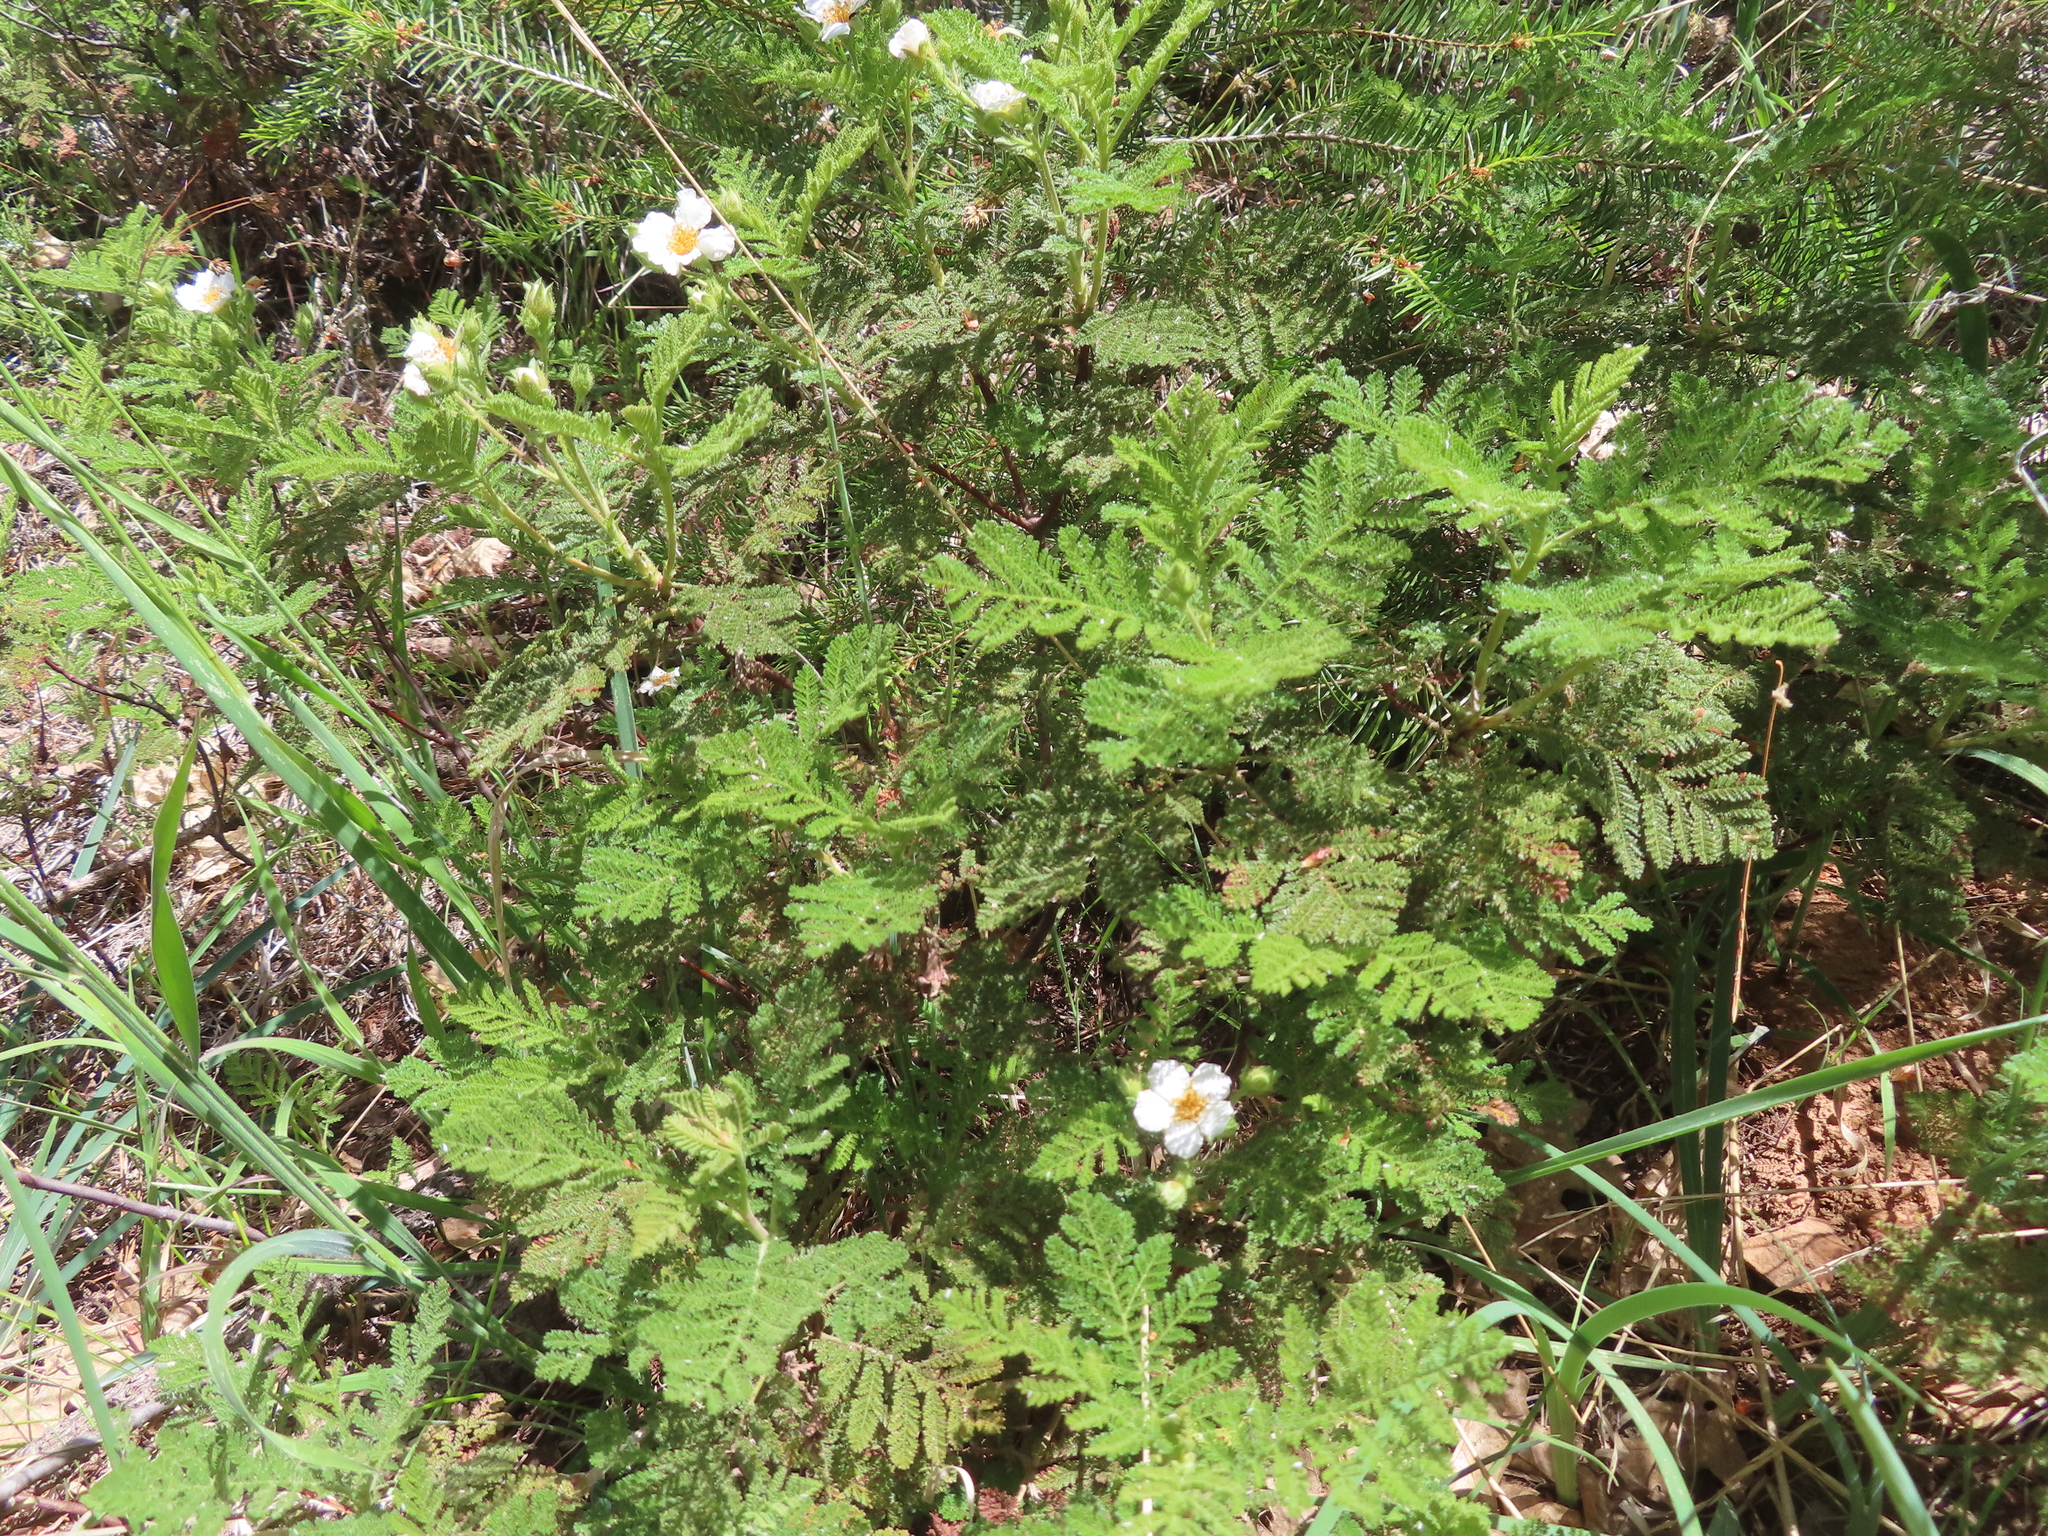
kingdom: Plantae
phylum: Tracheophyta
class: Magnoliopsida
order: Rosales
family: Rosaceae
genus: Chamaebatia
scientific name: Chamaebatia foliolosa
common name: Mountain misery
